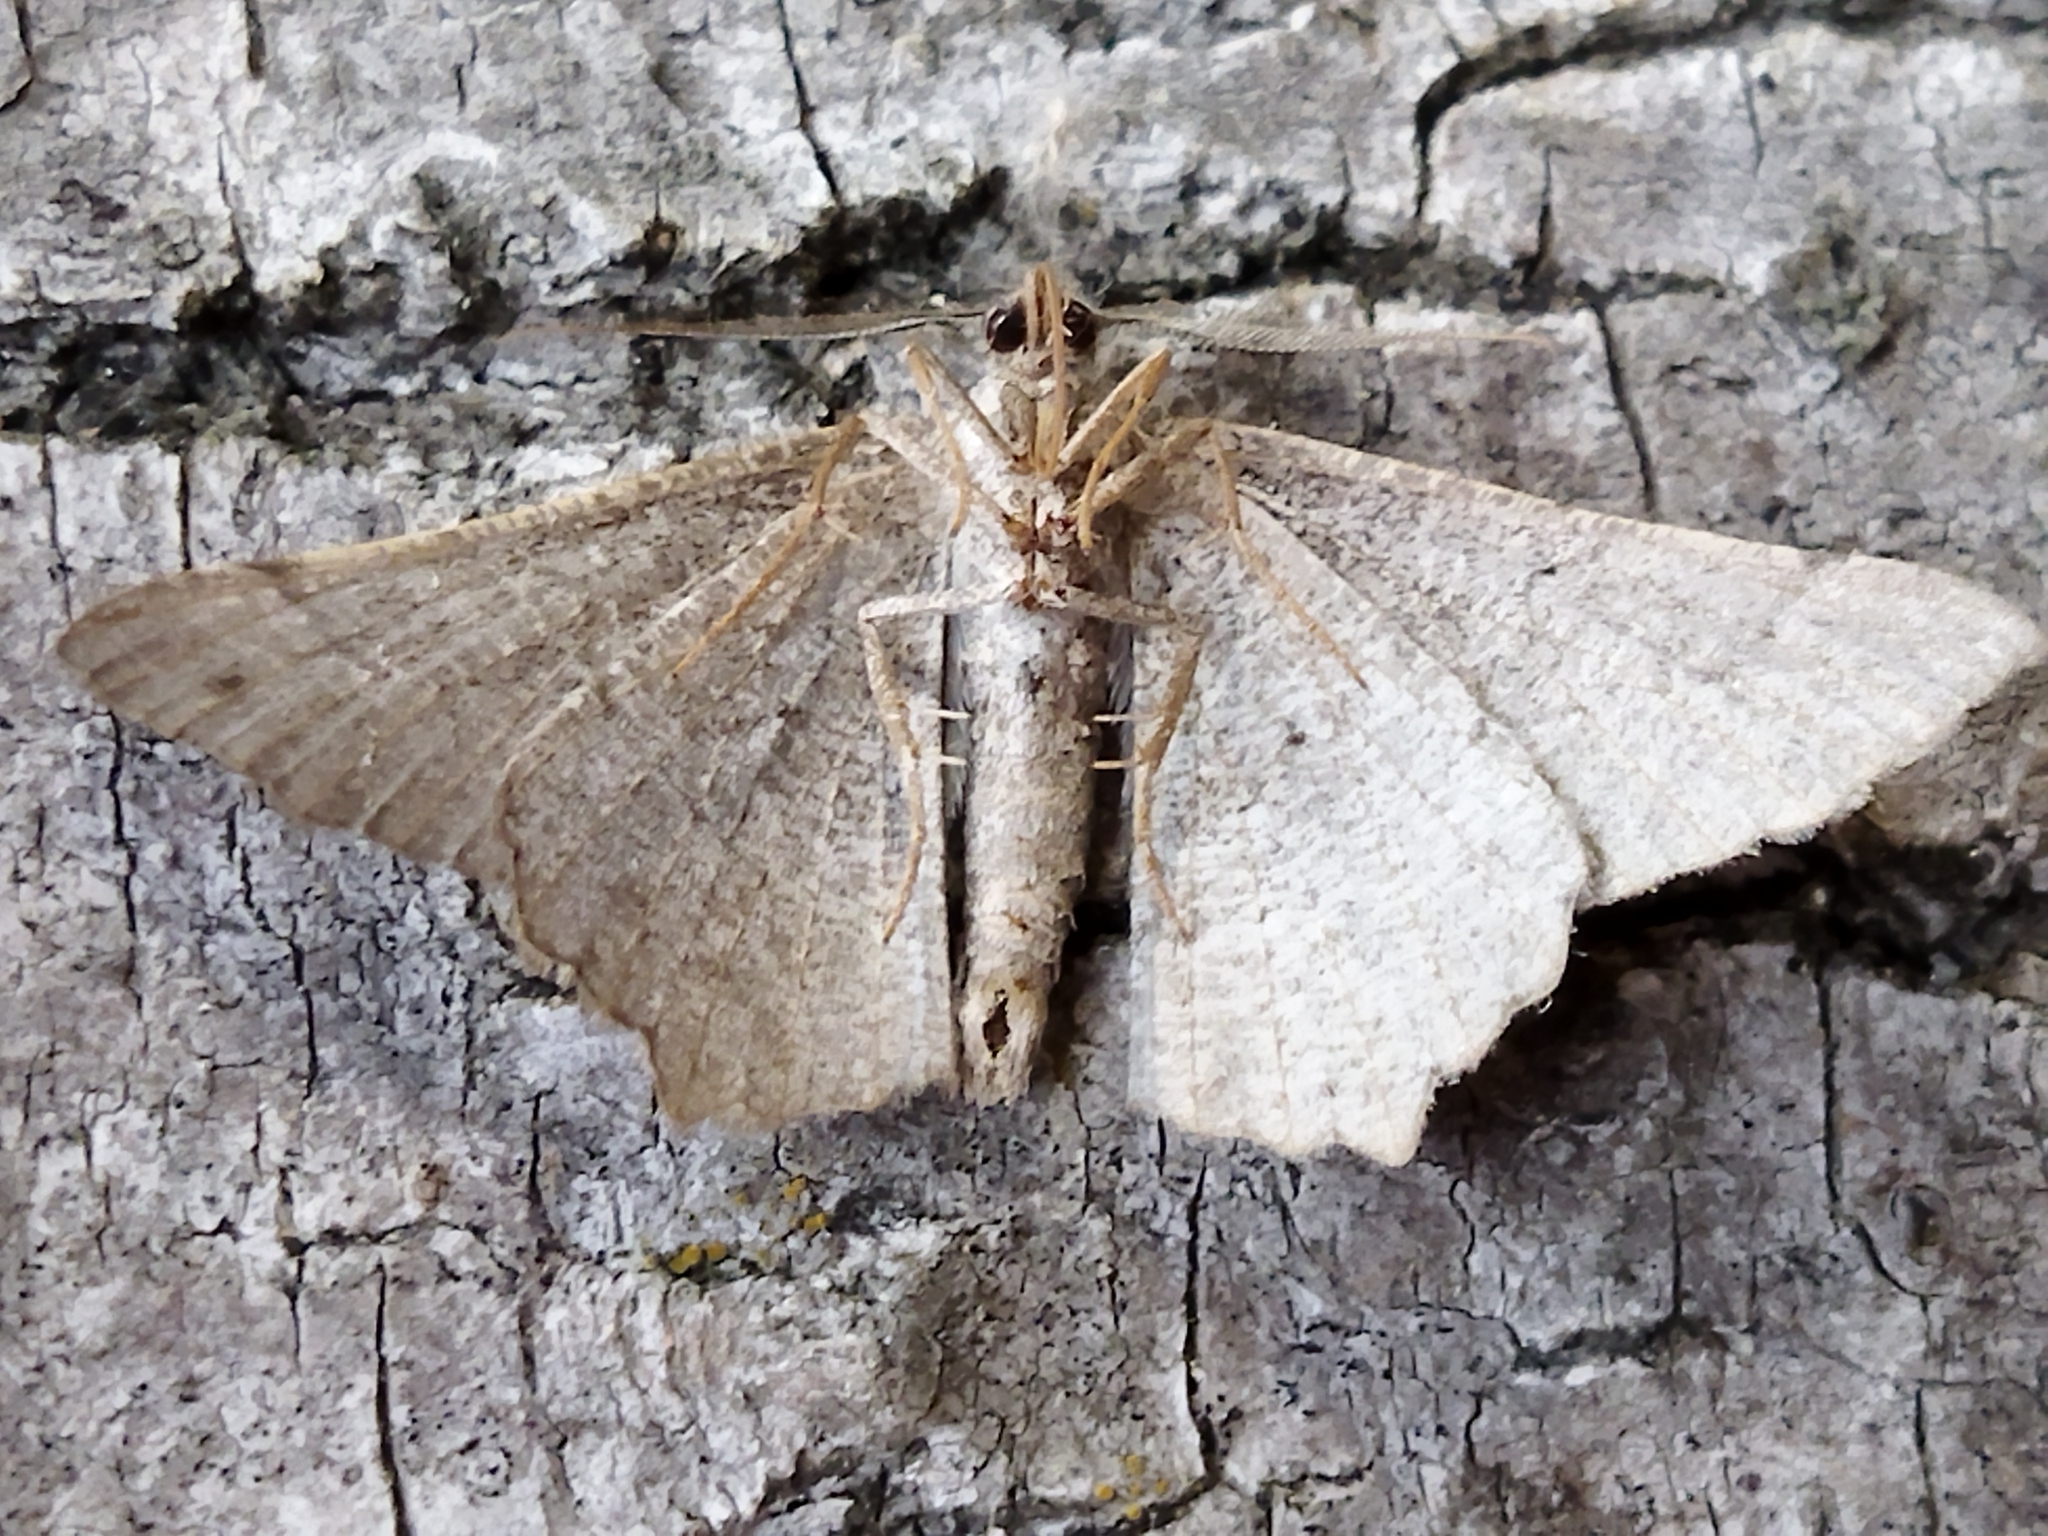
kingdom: Animalia
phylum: Arthropoda
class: Insecta
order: Lepidoptera
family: Geometridae
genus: Neognopharmia
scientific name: Neognopharmia stevenaria
